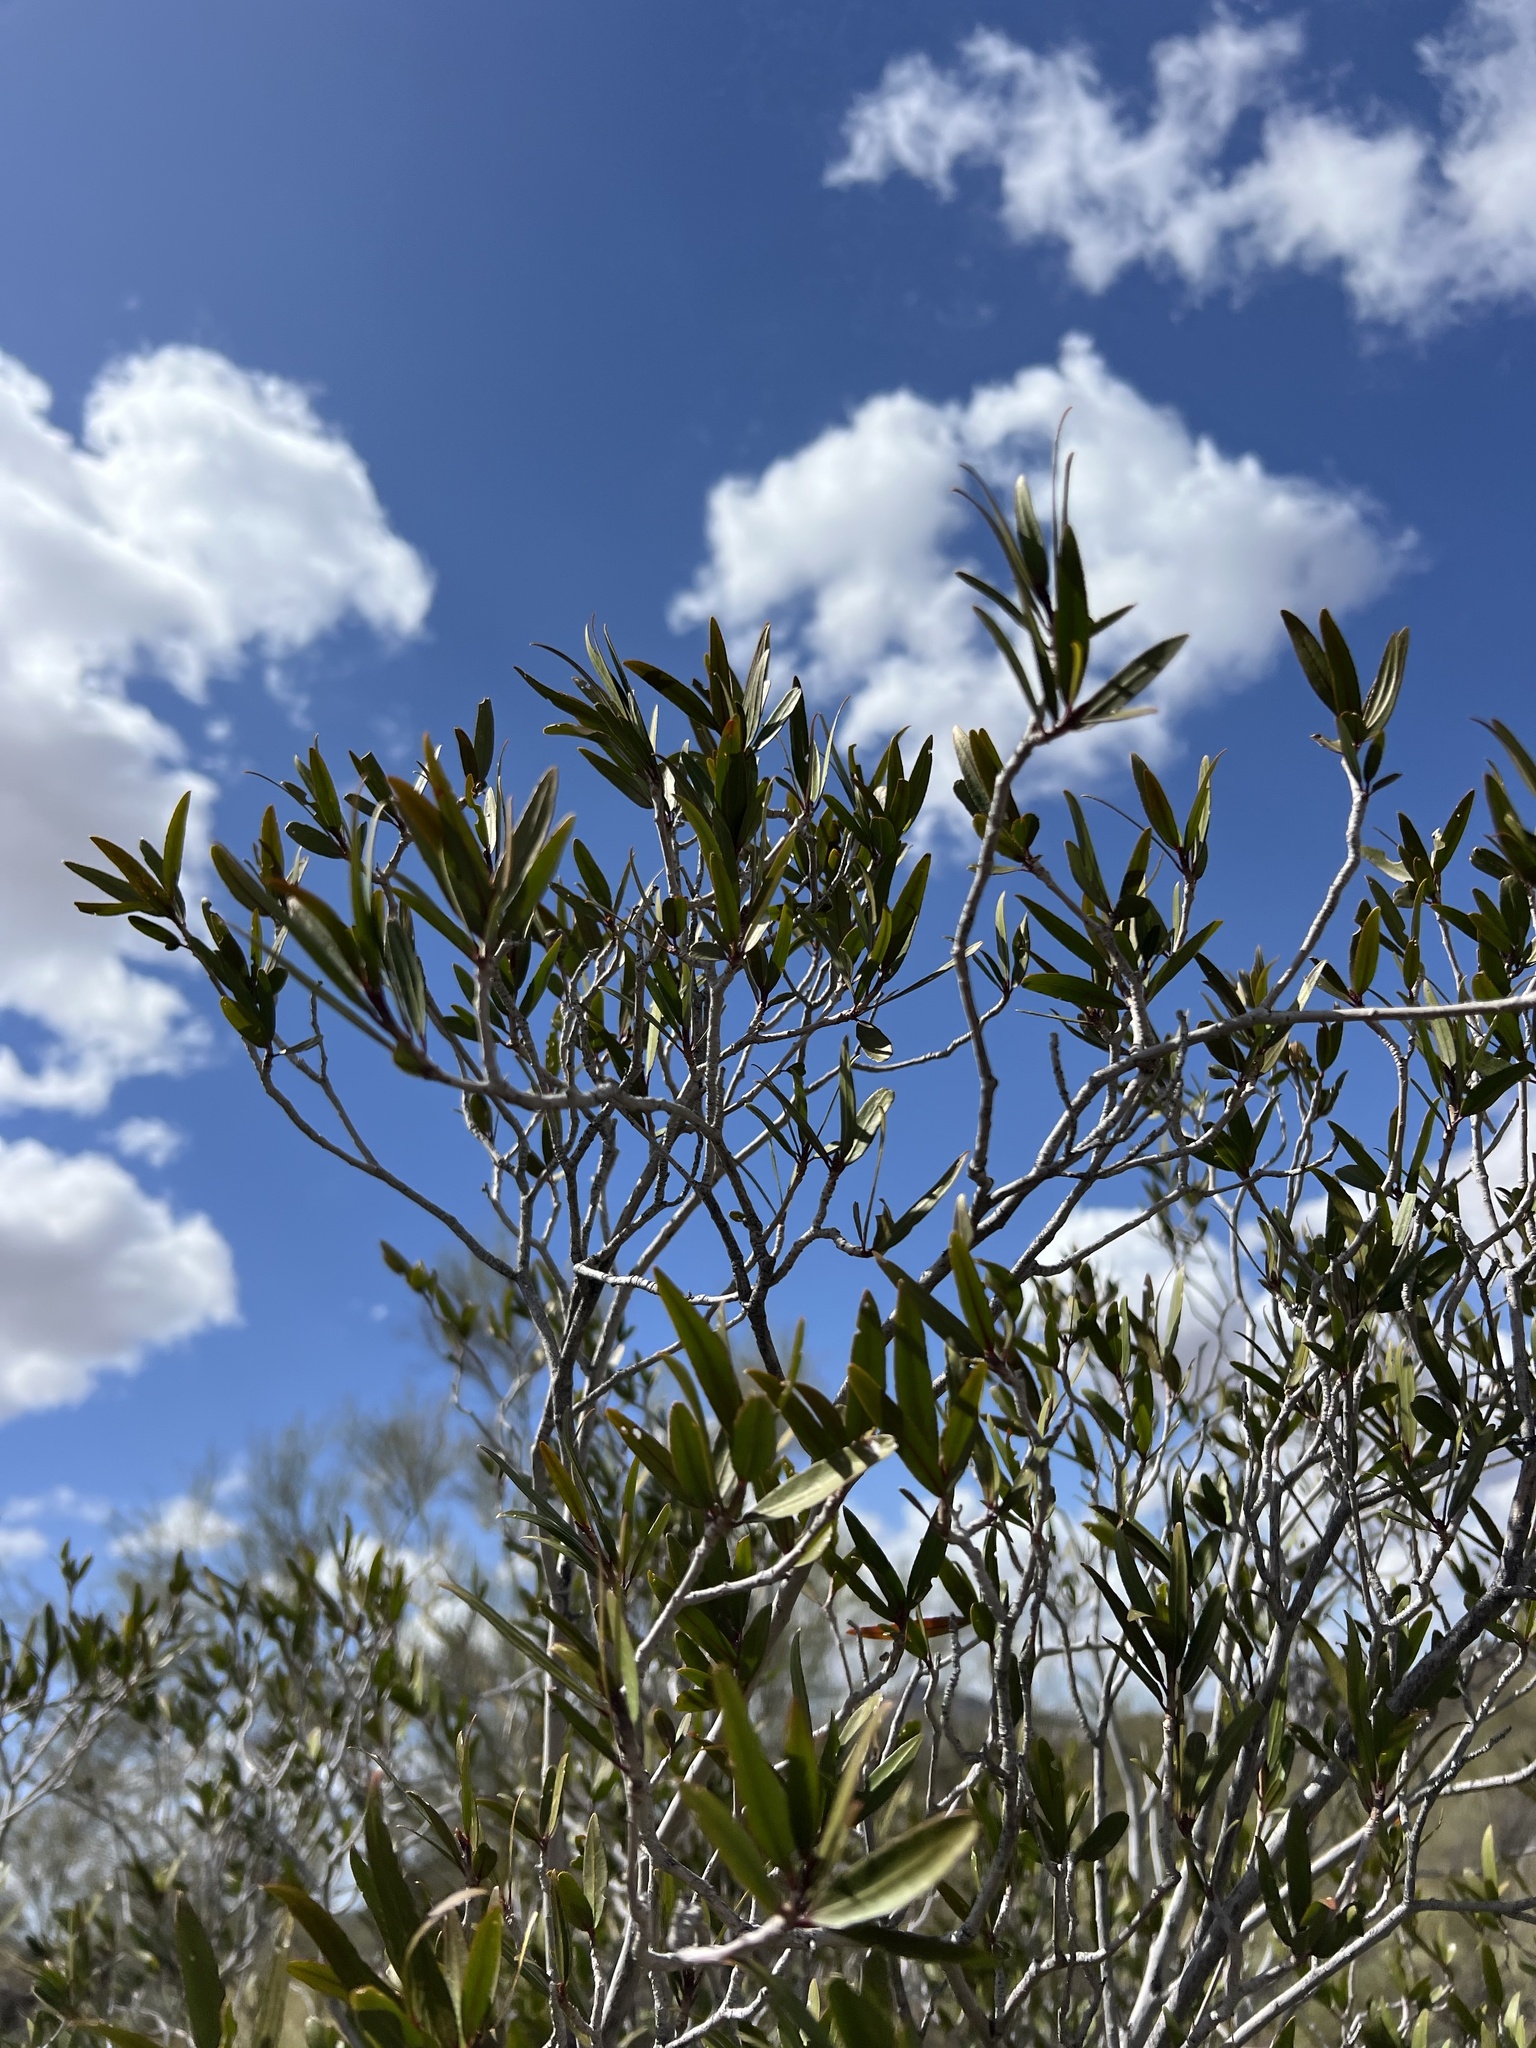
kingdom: Plantae
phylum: Tracheophyta
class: Magnoliopsida
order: Malpighiales
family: Euphorbiaceae
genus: Pleradenophora
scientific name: Pleradenophora bilocularis
